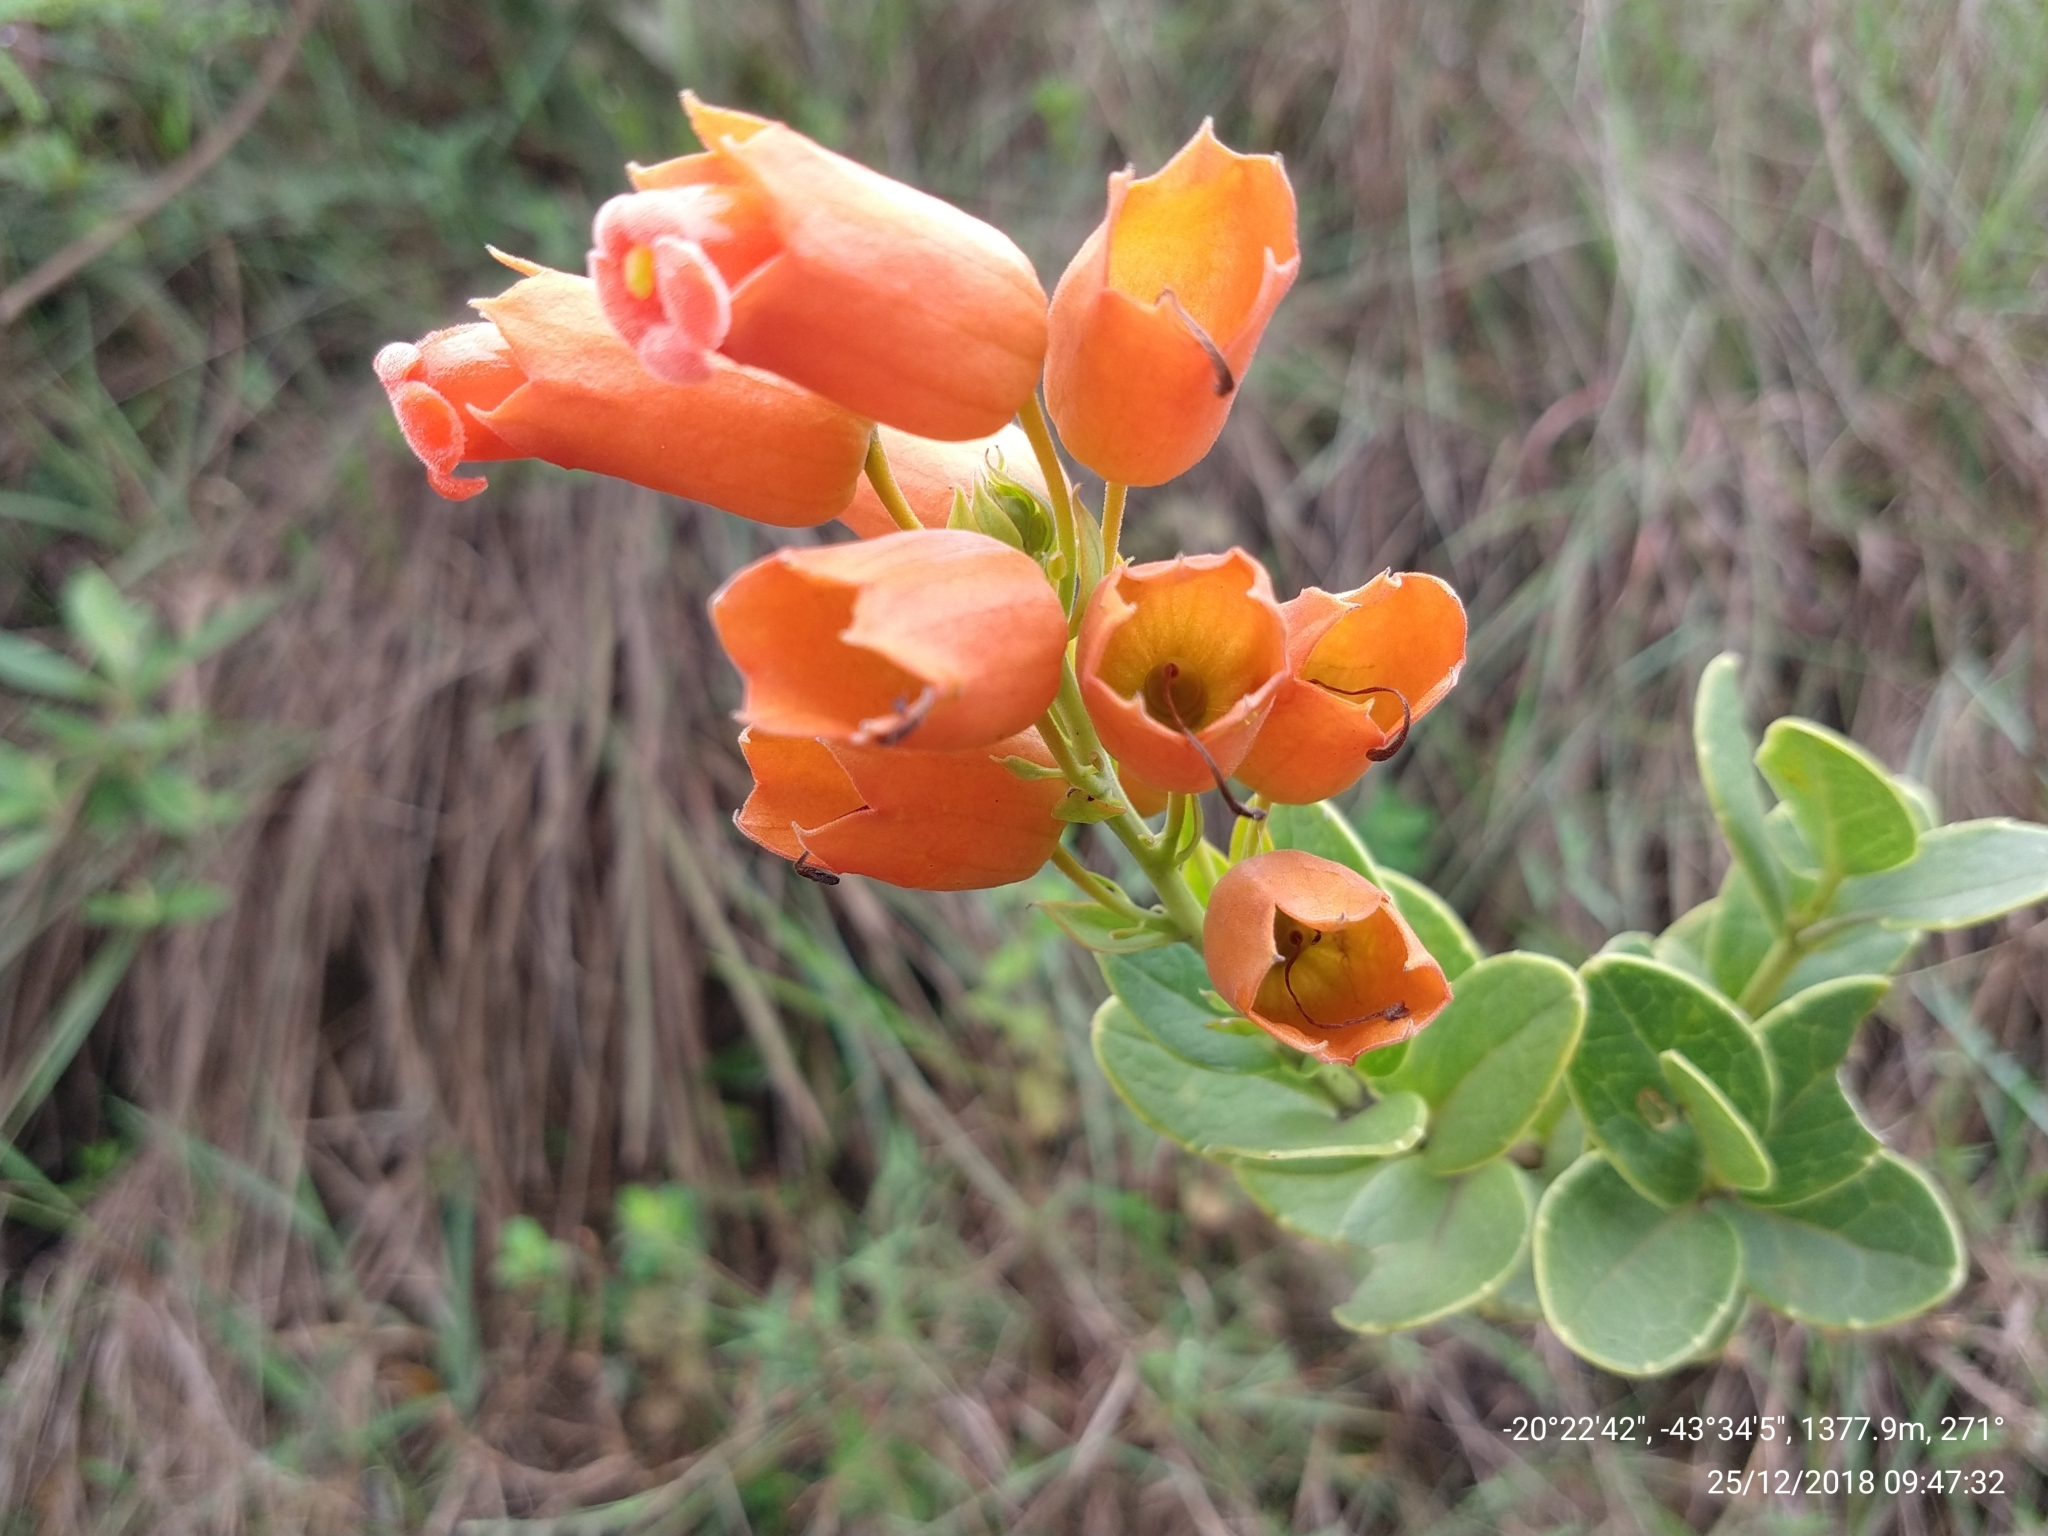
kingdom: Plantae
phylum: Tracheophyta
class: Magnoliopsida
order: Lamiales
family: Orobanchaceae
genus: Physocalyx
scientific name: Physocalyx major
